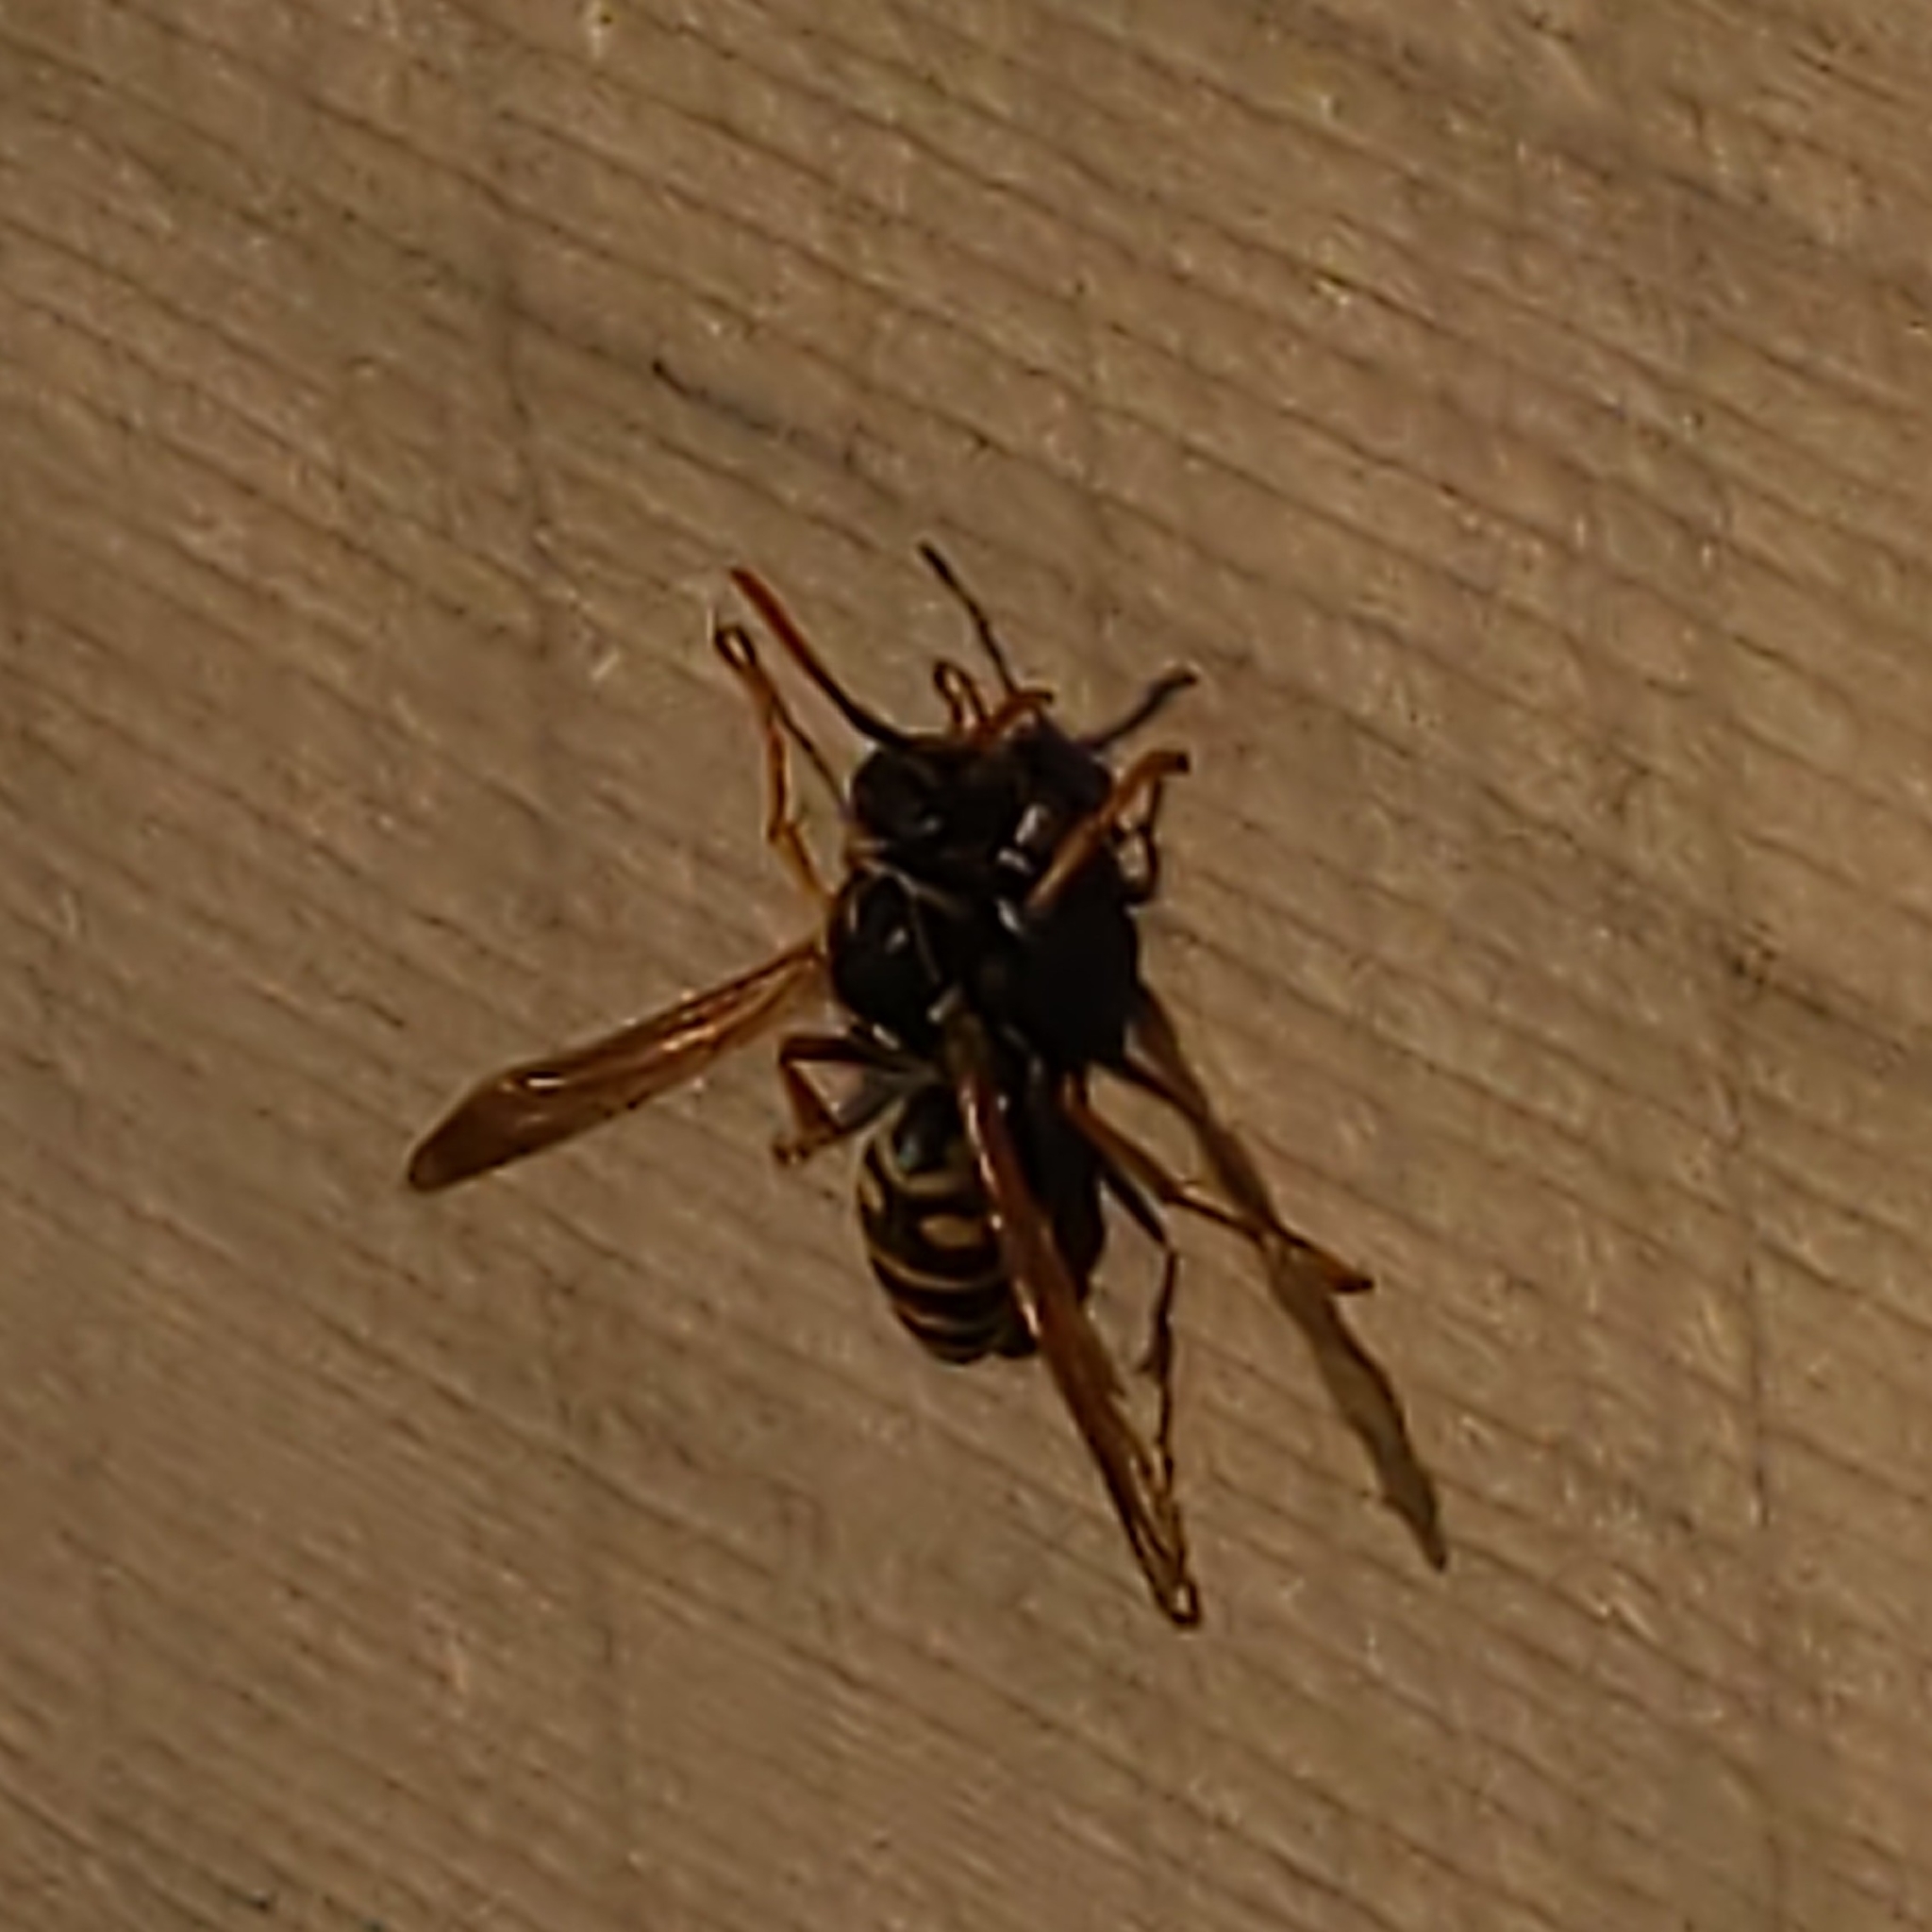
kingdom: Animalia
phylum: Arthropoda
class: Insecta
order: Hymenoptera
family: Eumenidae
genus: Polistes
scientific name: Polistes dominula
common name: Paper wasp
